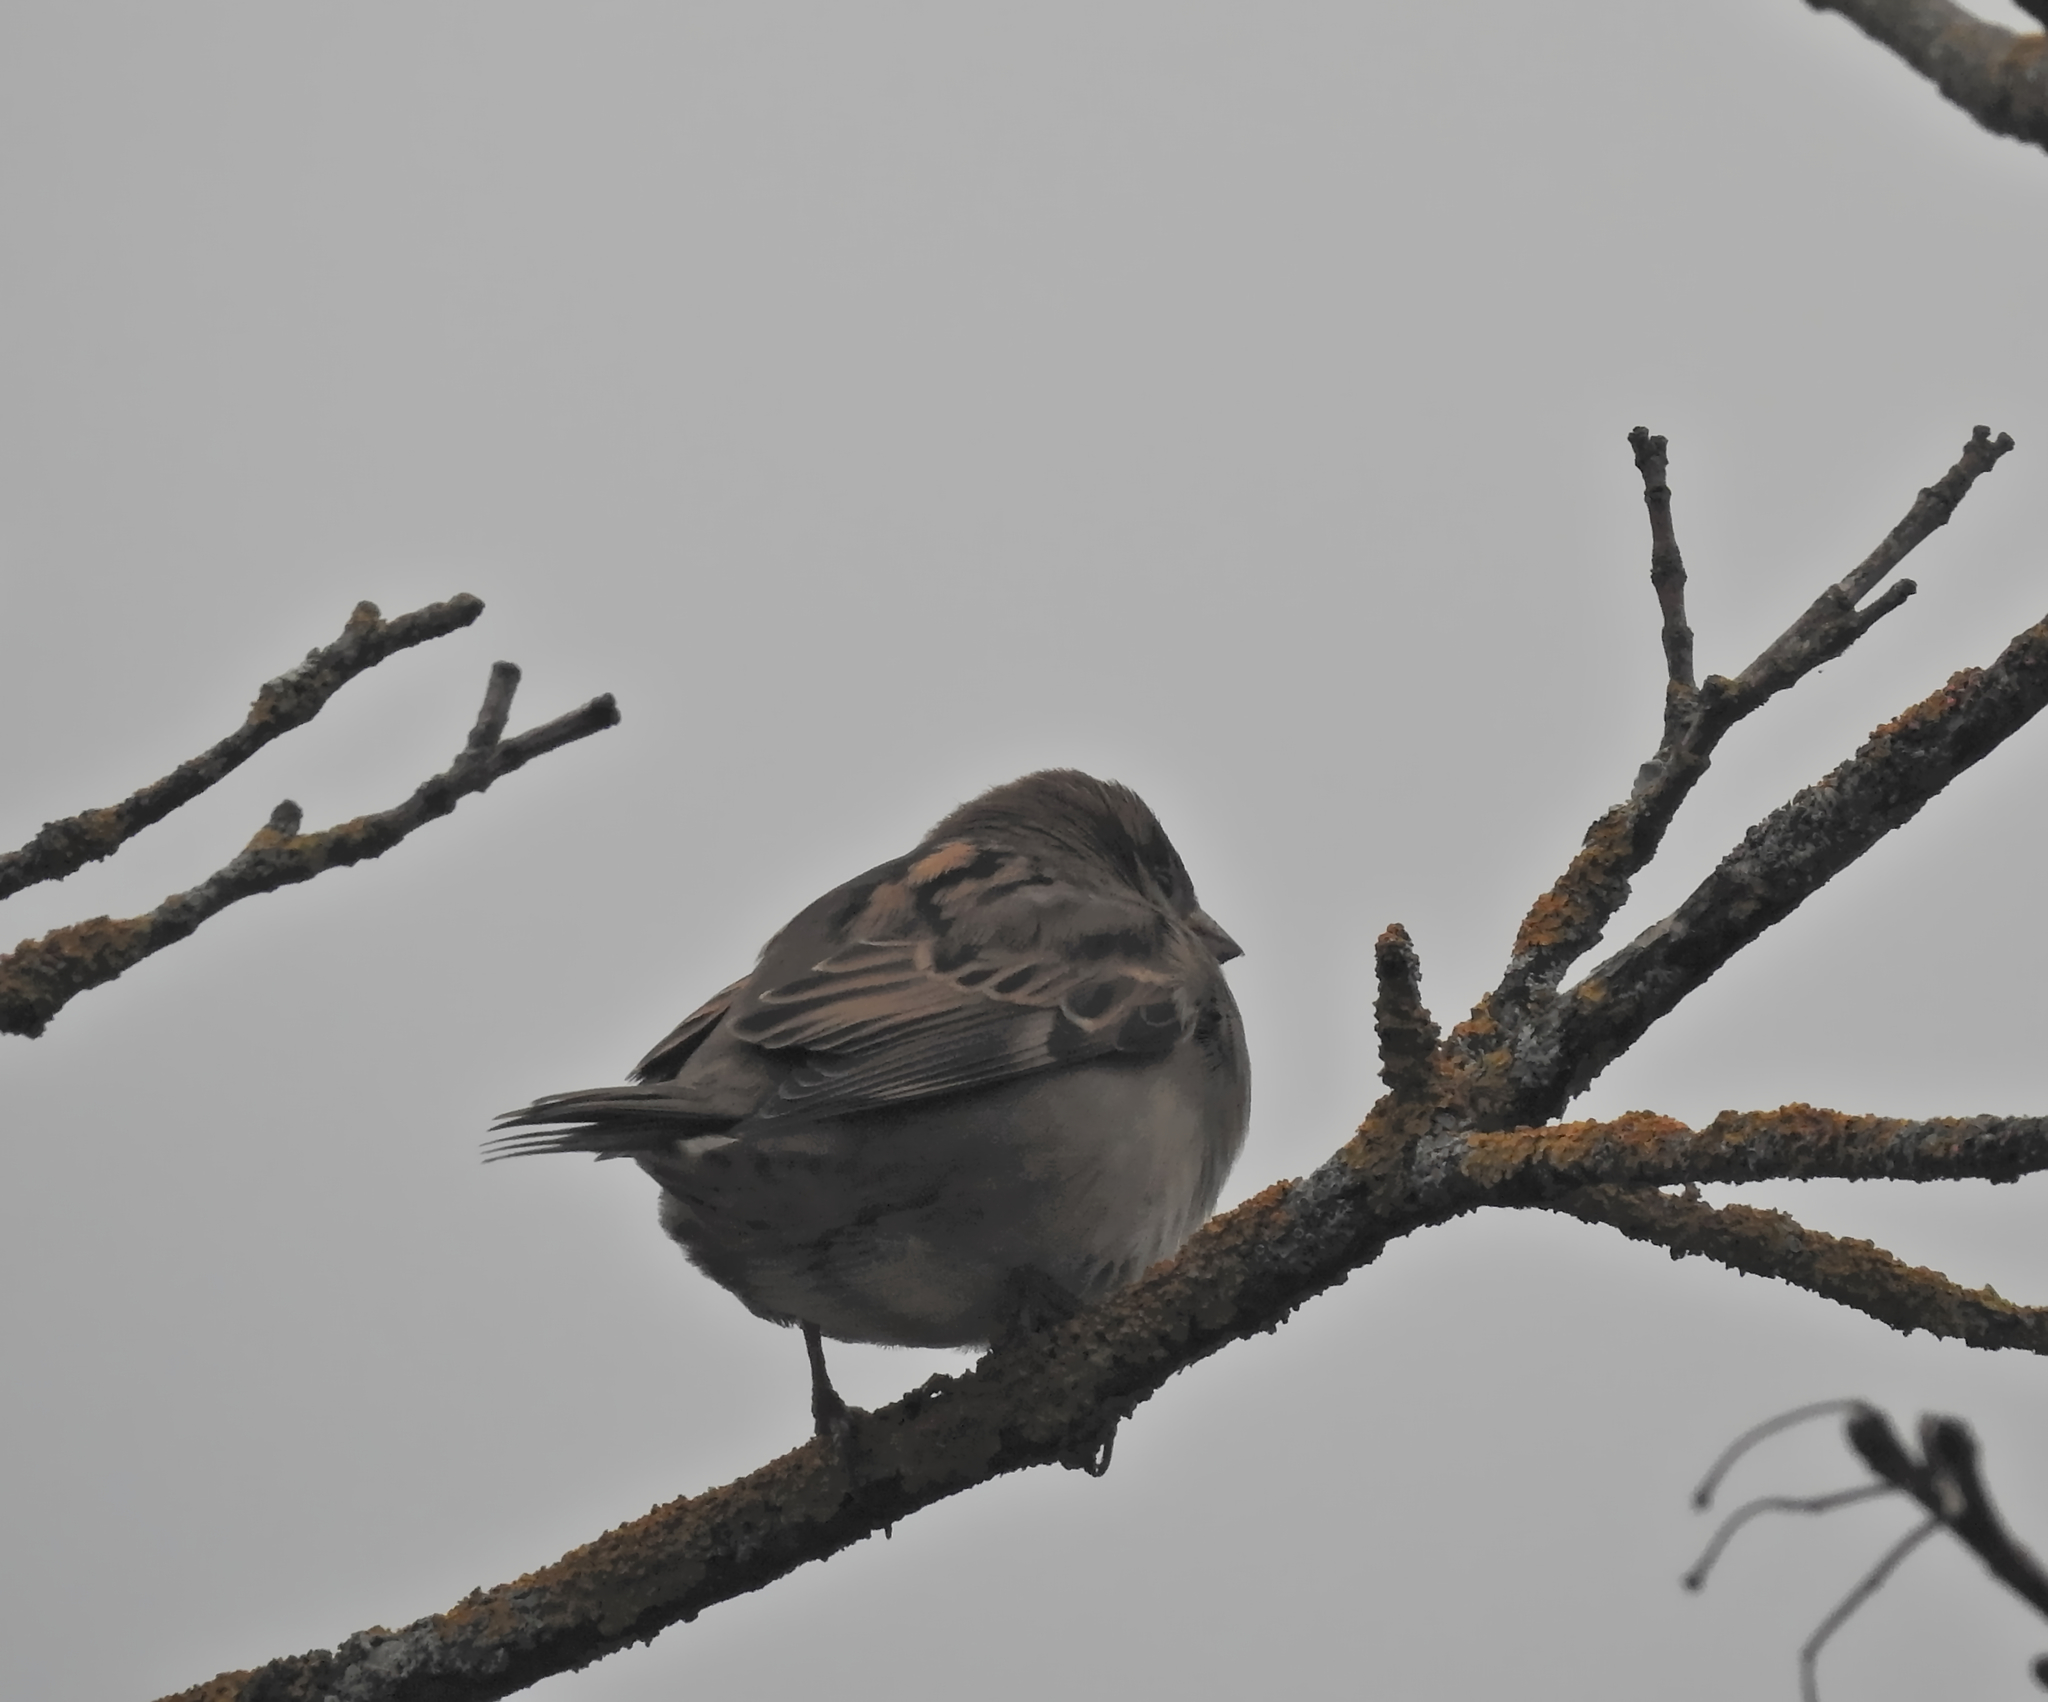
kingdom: Animalia
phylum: Chordata
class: Aves
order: Passeriformes
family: Passeridae
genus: Passer
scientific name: Passer domesticus
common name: House sparrow
